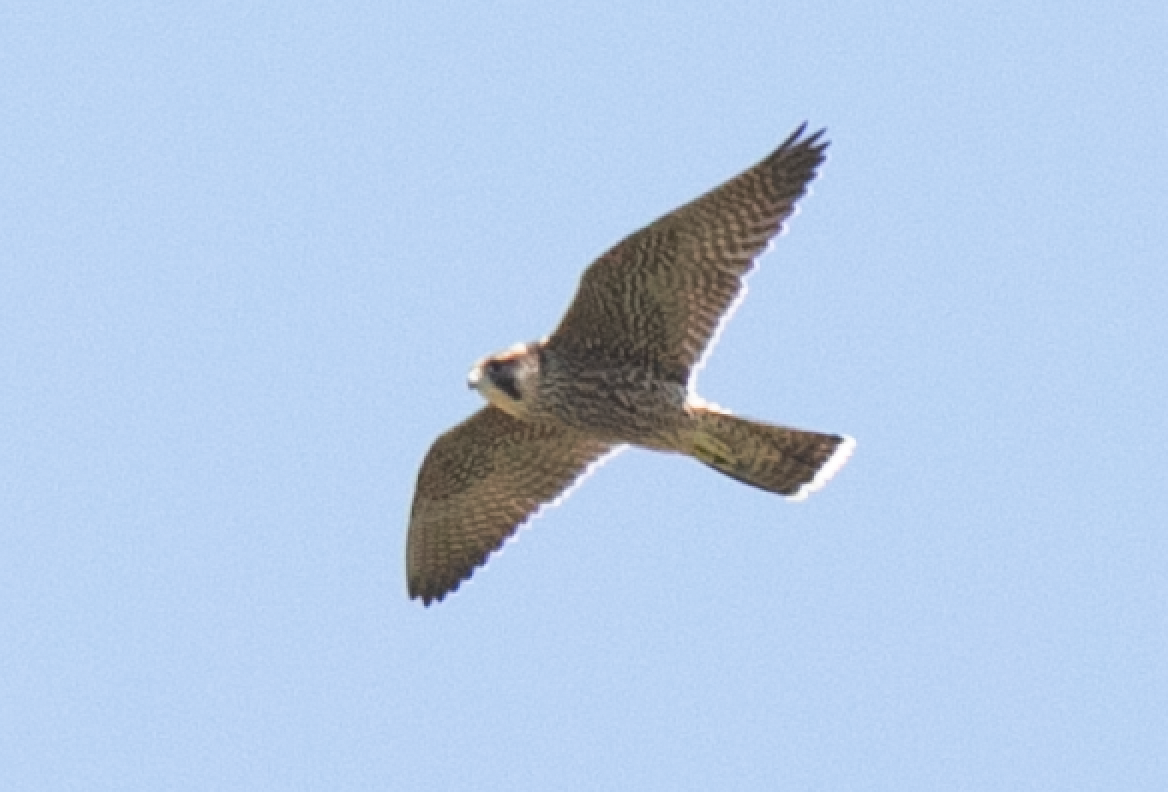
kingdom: Animalia
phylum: Chordata
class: Aves
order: Falconiformes
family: Falconidae
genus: Falco
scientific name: Falco peregrinus
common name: Peregrine falcon
